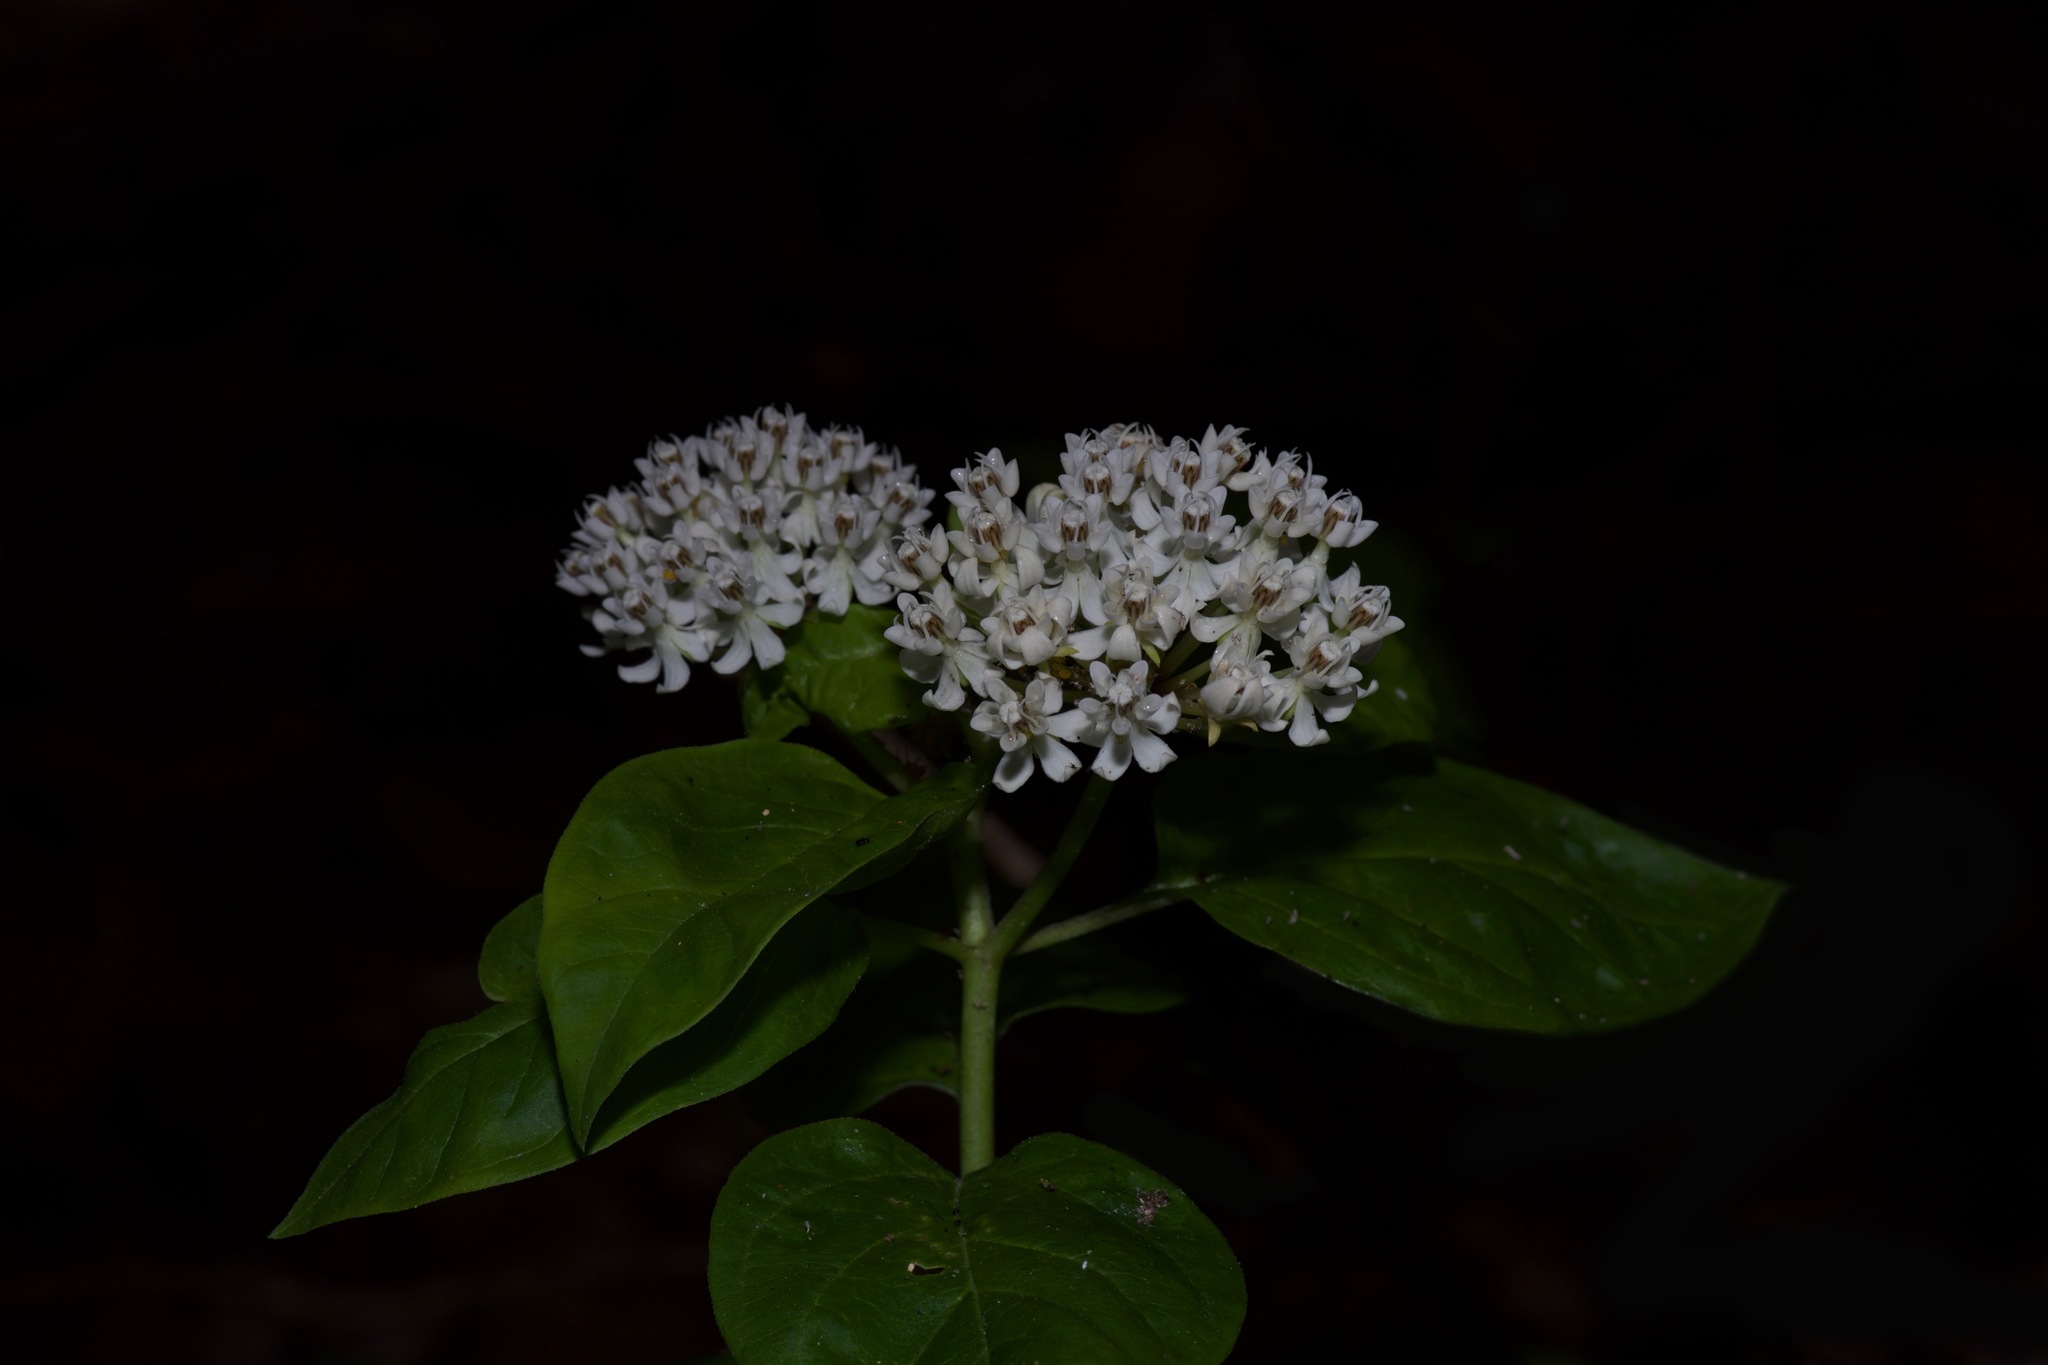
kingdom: Plantae
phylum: Tracheophyta
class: Magnoliopsida
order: Gentianales
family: Apocynaceae
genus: Asclepias
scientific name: Asclepias texana
